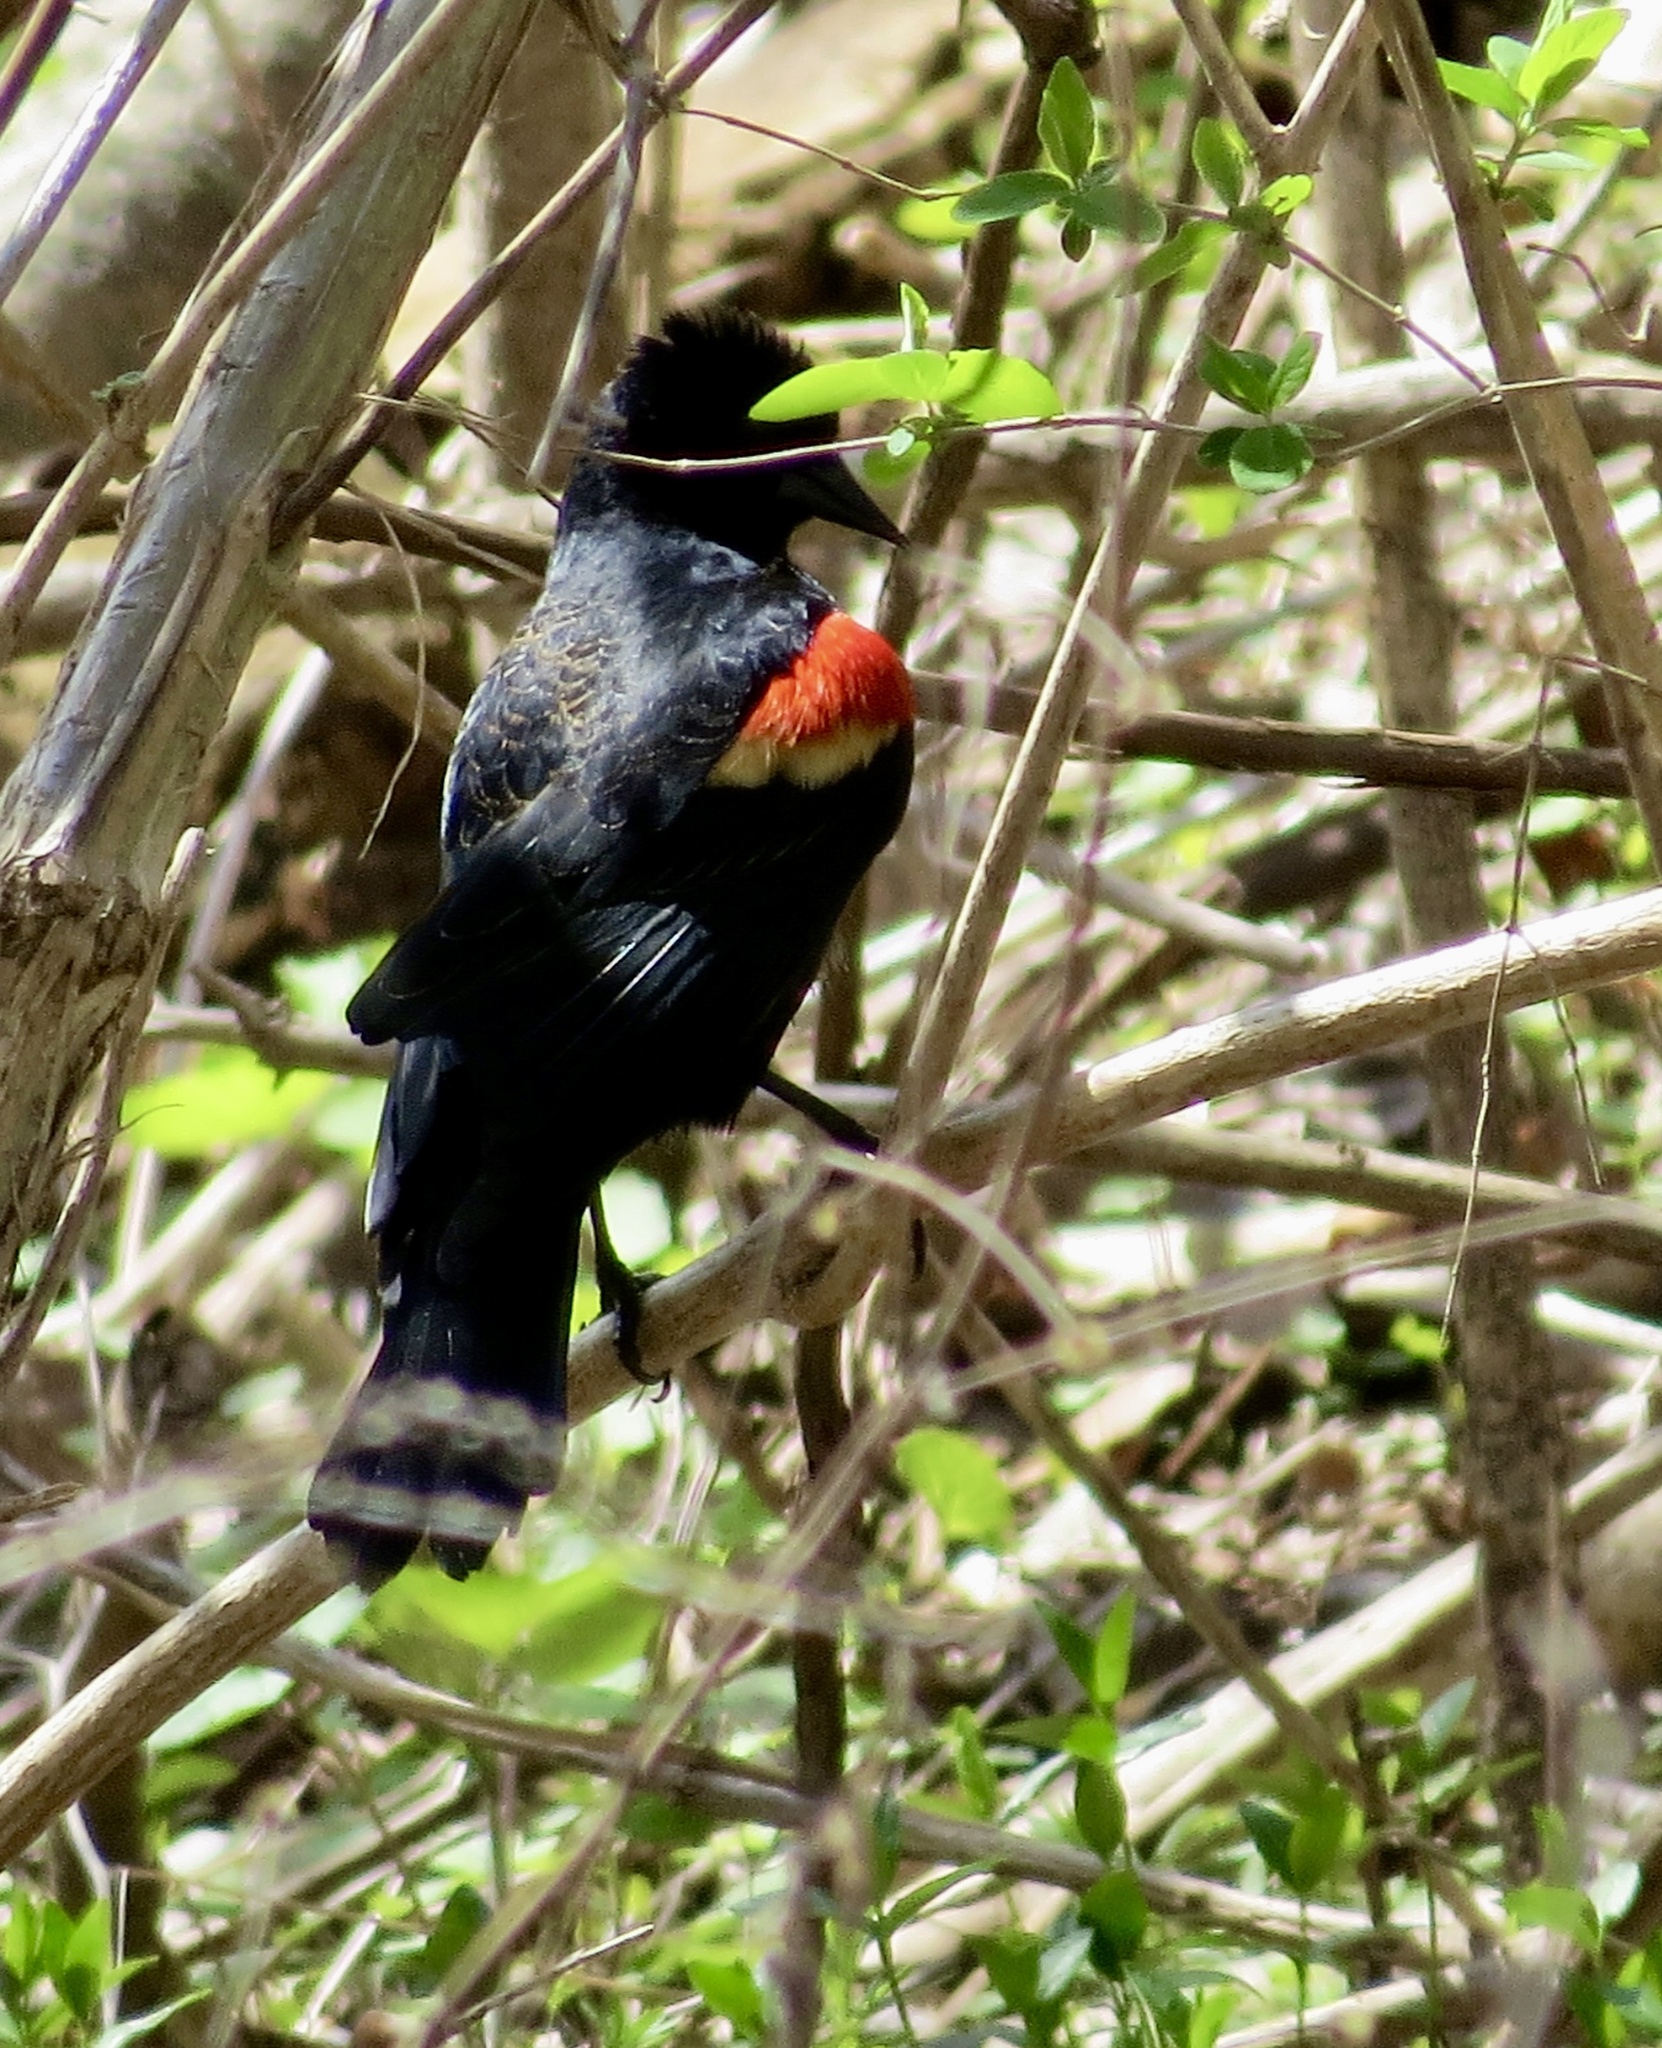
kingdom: Animalia
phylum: Chordata
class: Aves
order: Passeriformes
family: Icteridae
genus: Agelaius
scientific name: Agelaius phoeniceus
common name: Red-winged blackbird
